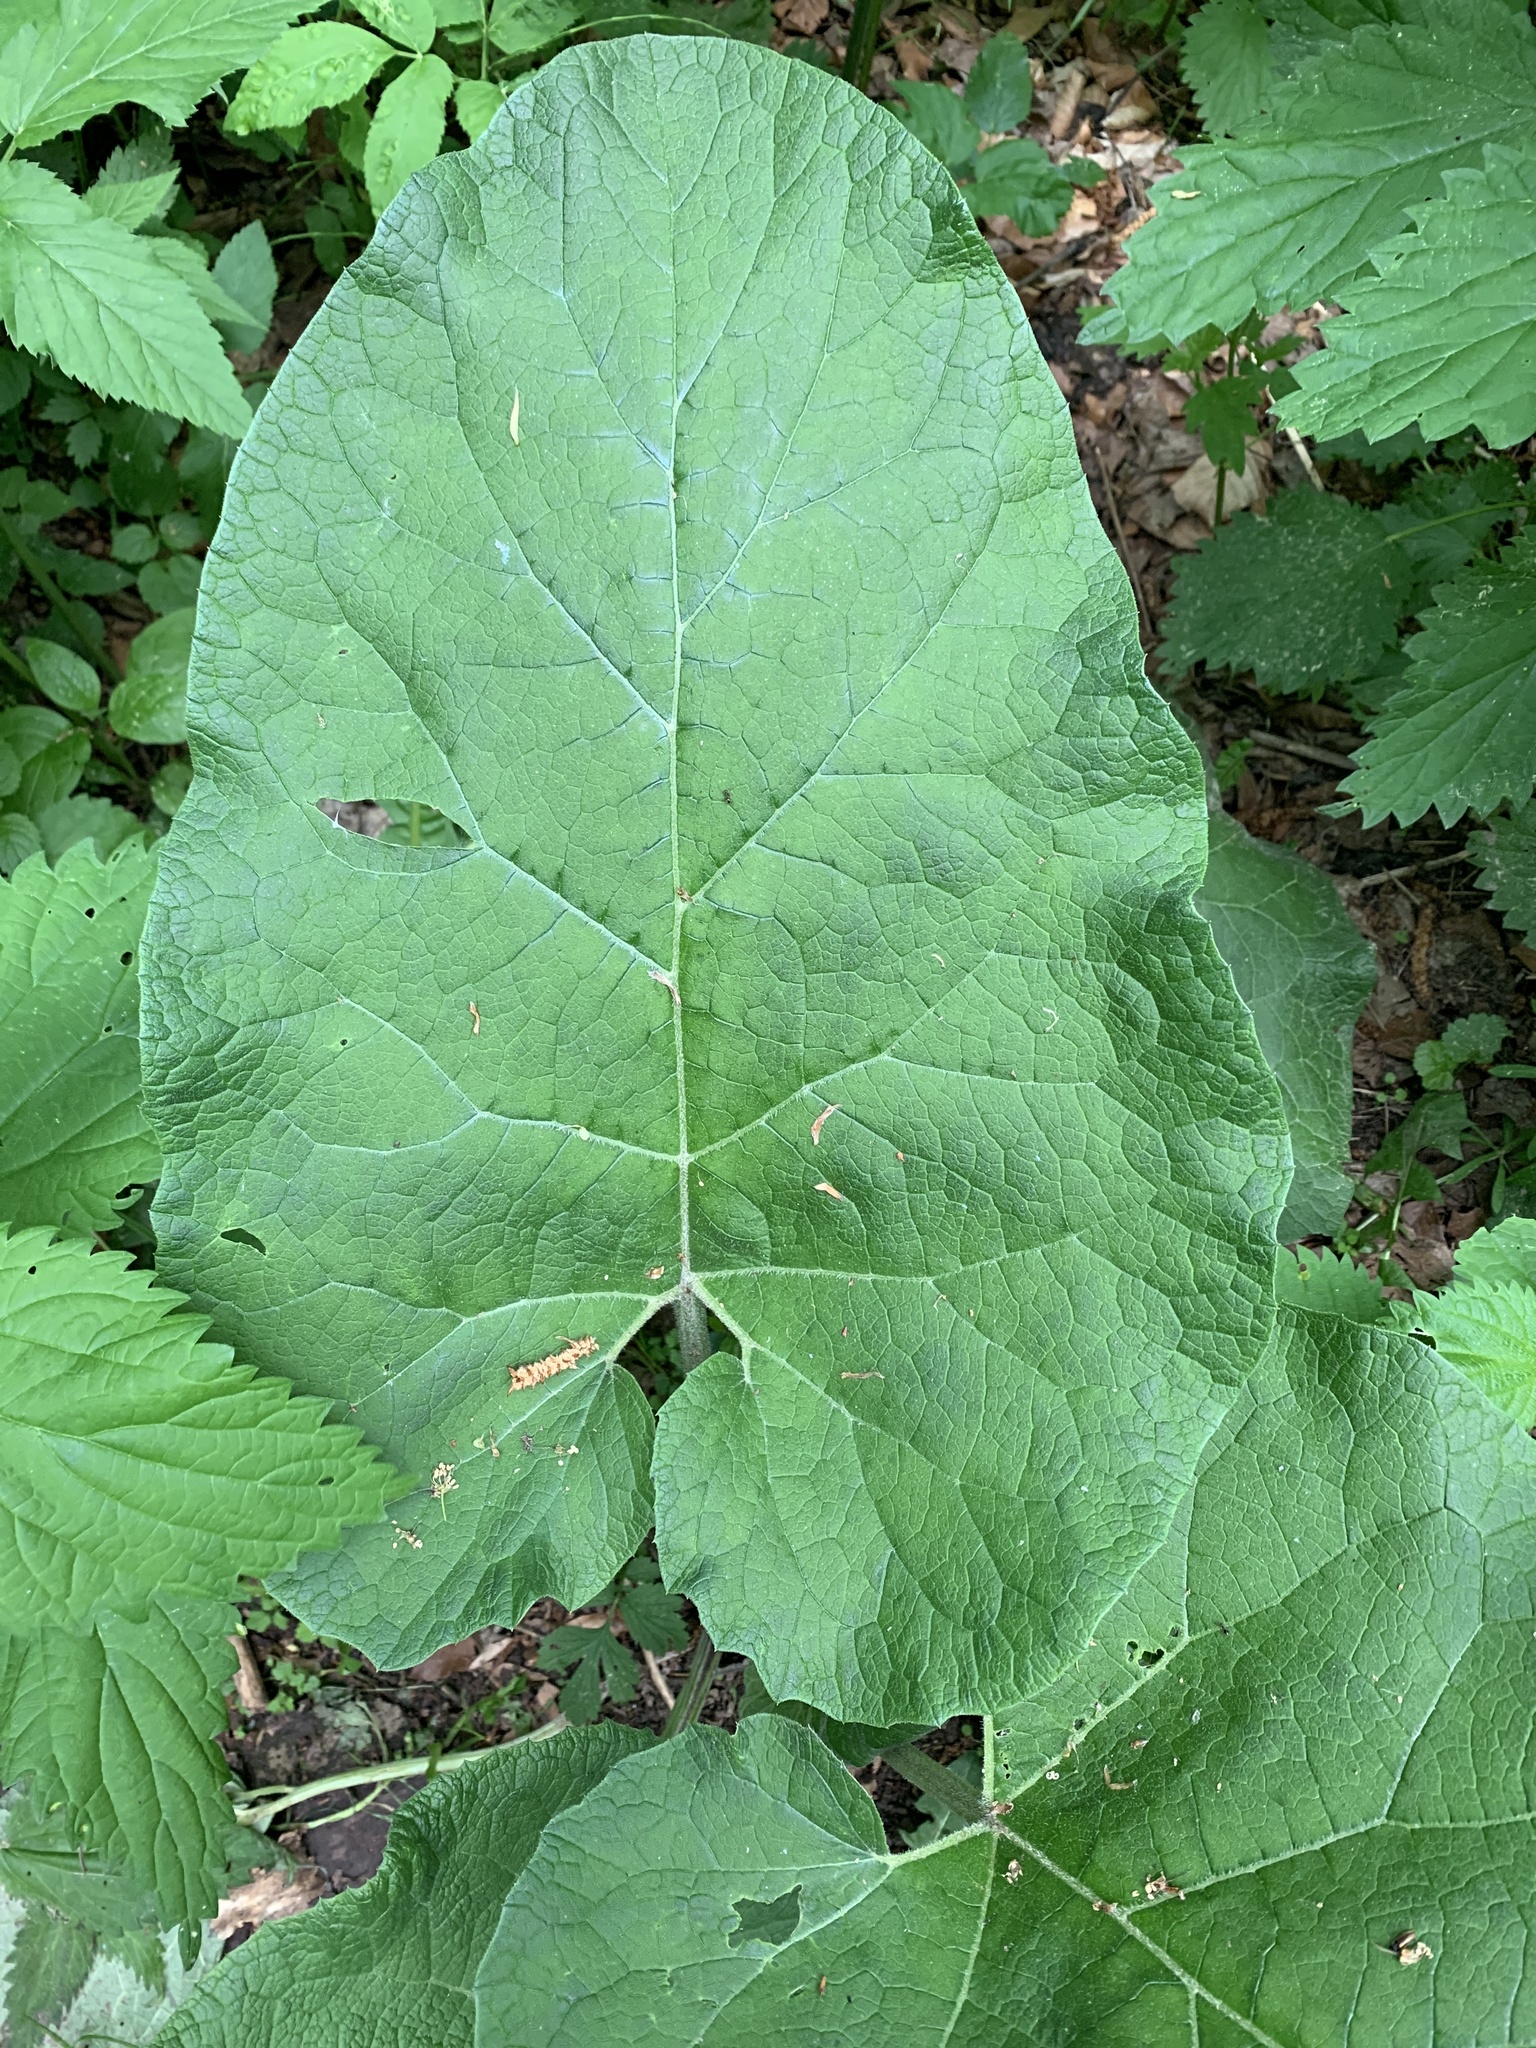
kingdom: Plantae
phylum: Tracheophyta
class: Magnoliopsida
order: Asterales
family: Asteraceae
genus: Arctium
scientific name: Arctium lappa
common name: Greater burdock
